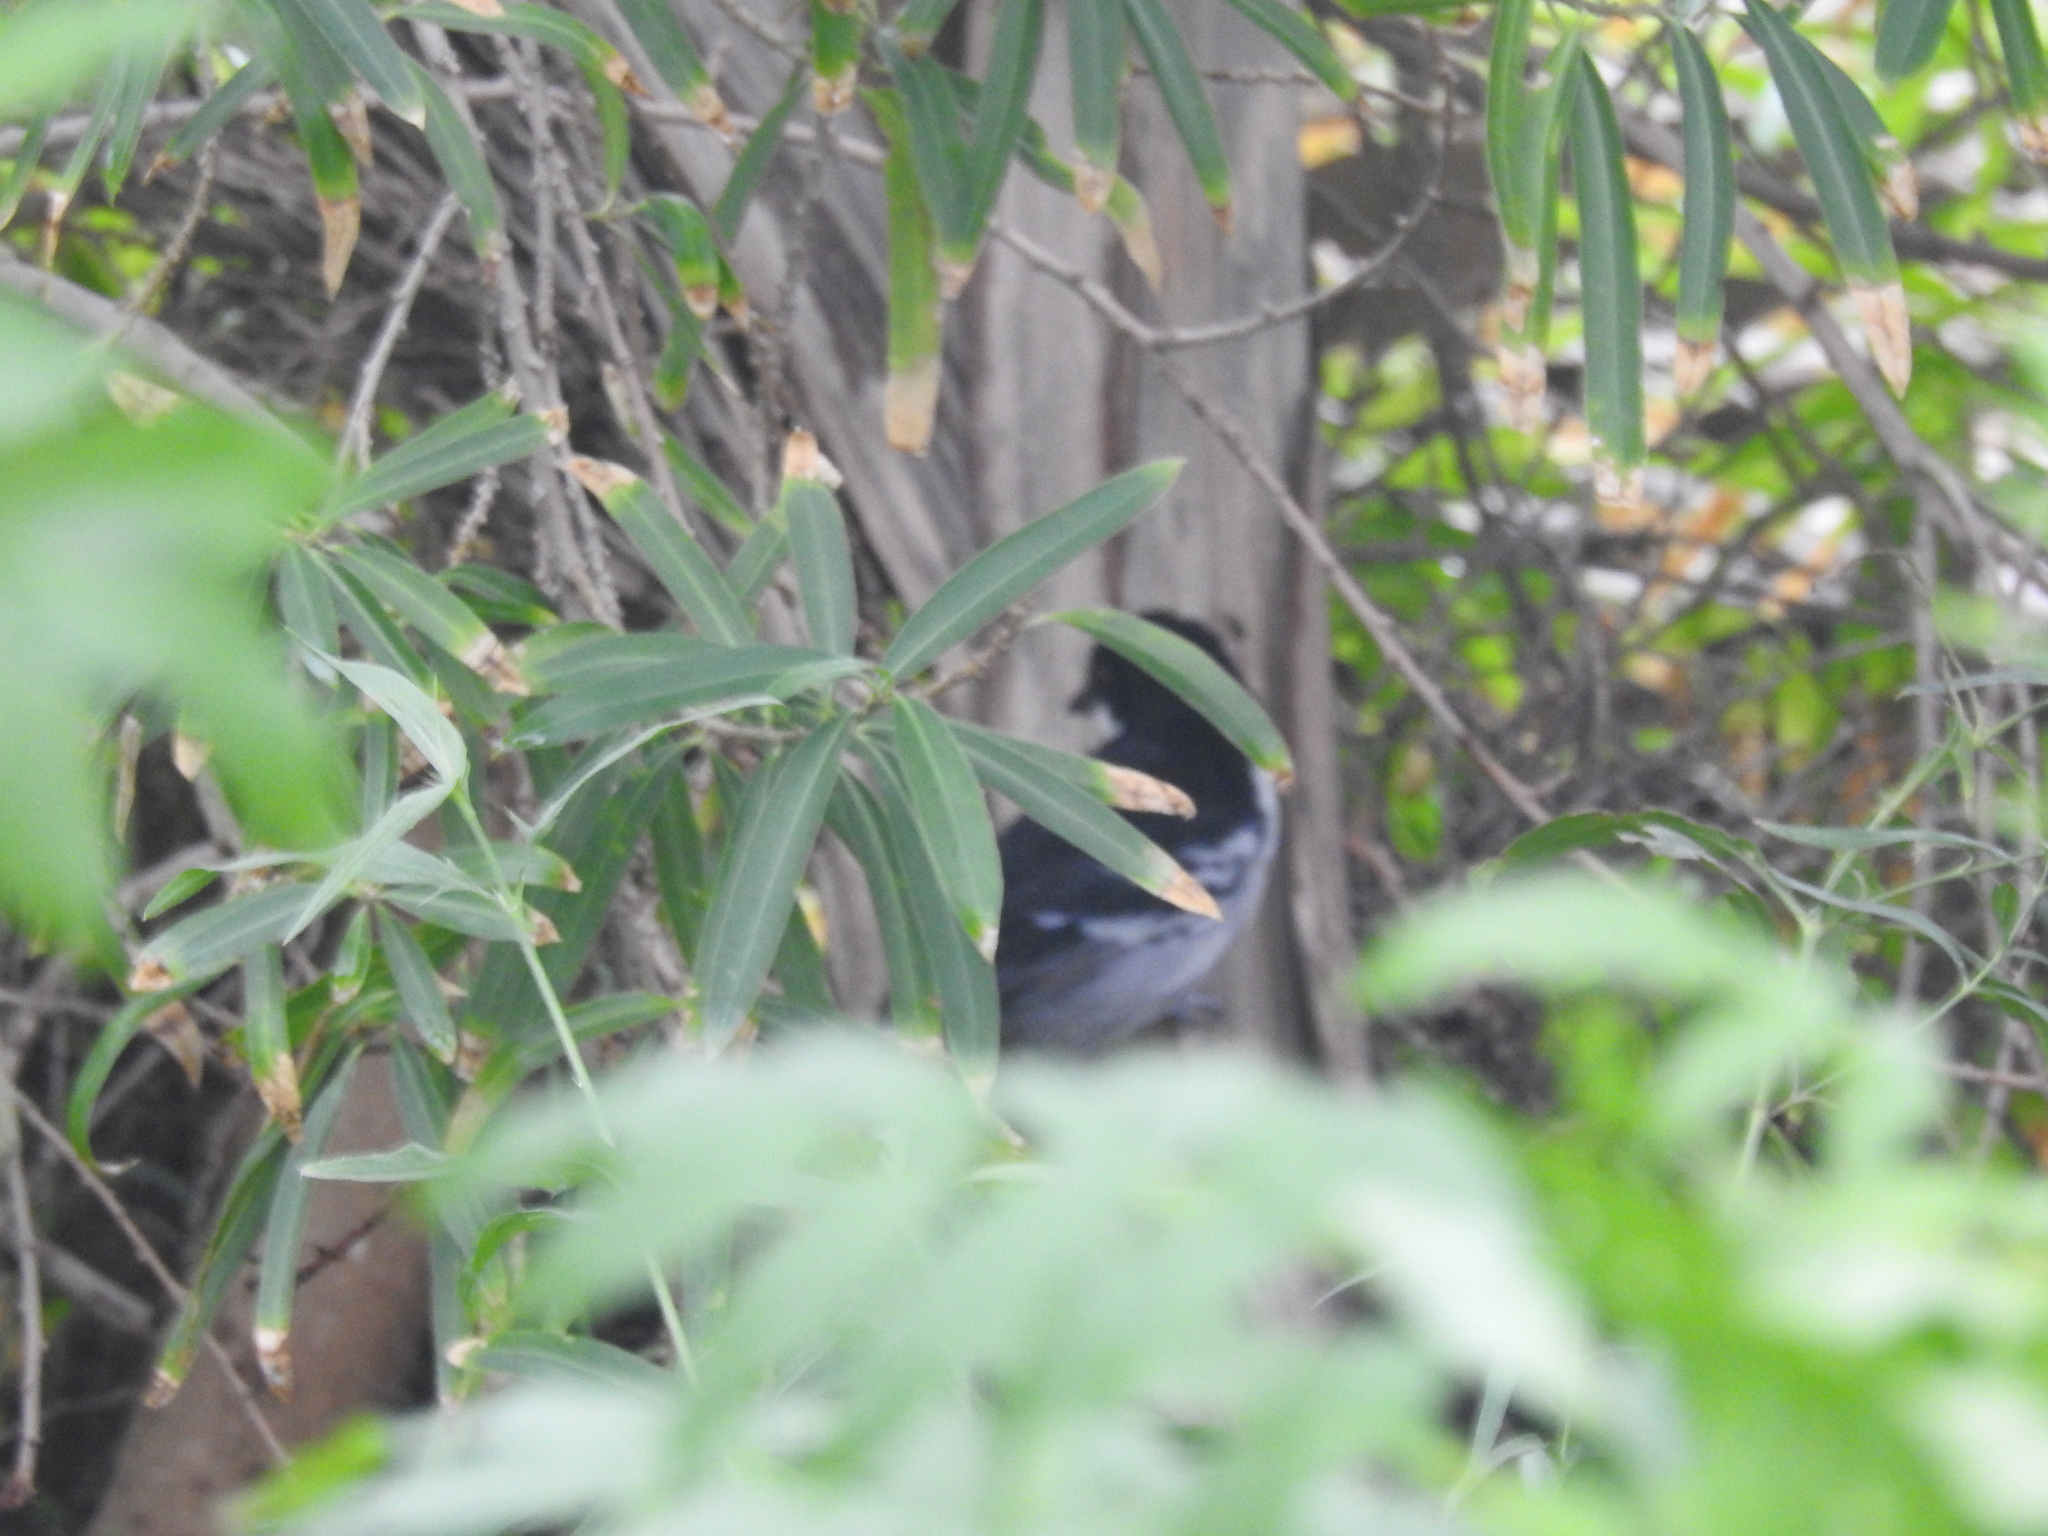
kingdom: Animalia
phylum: Chordata
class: Aves
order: Passeriformes
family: Thamnophilidae
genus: Taraba
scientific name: Taraba major
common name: Great antshrike
